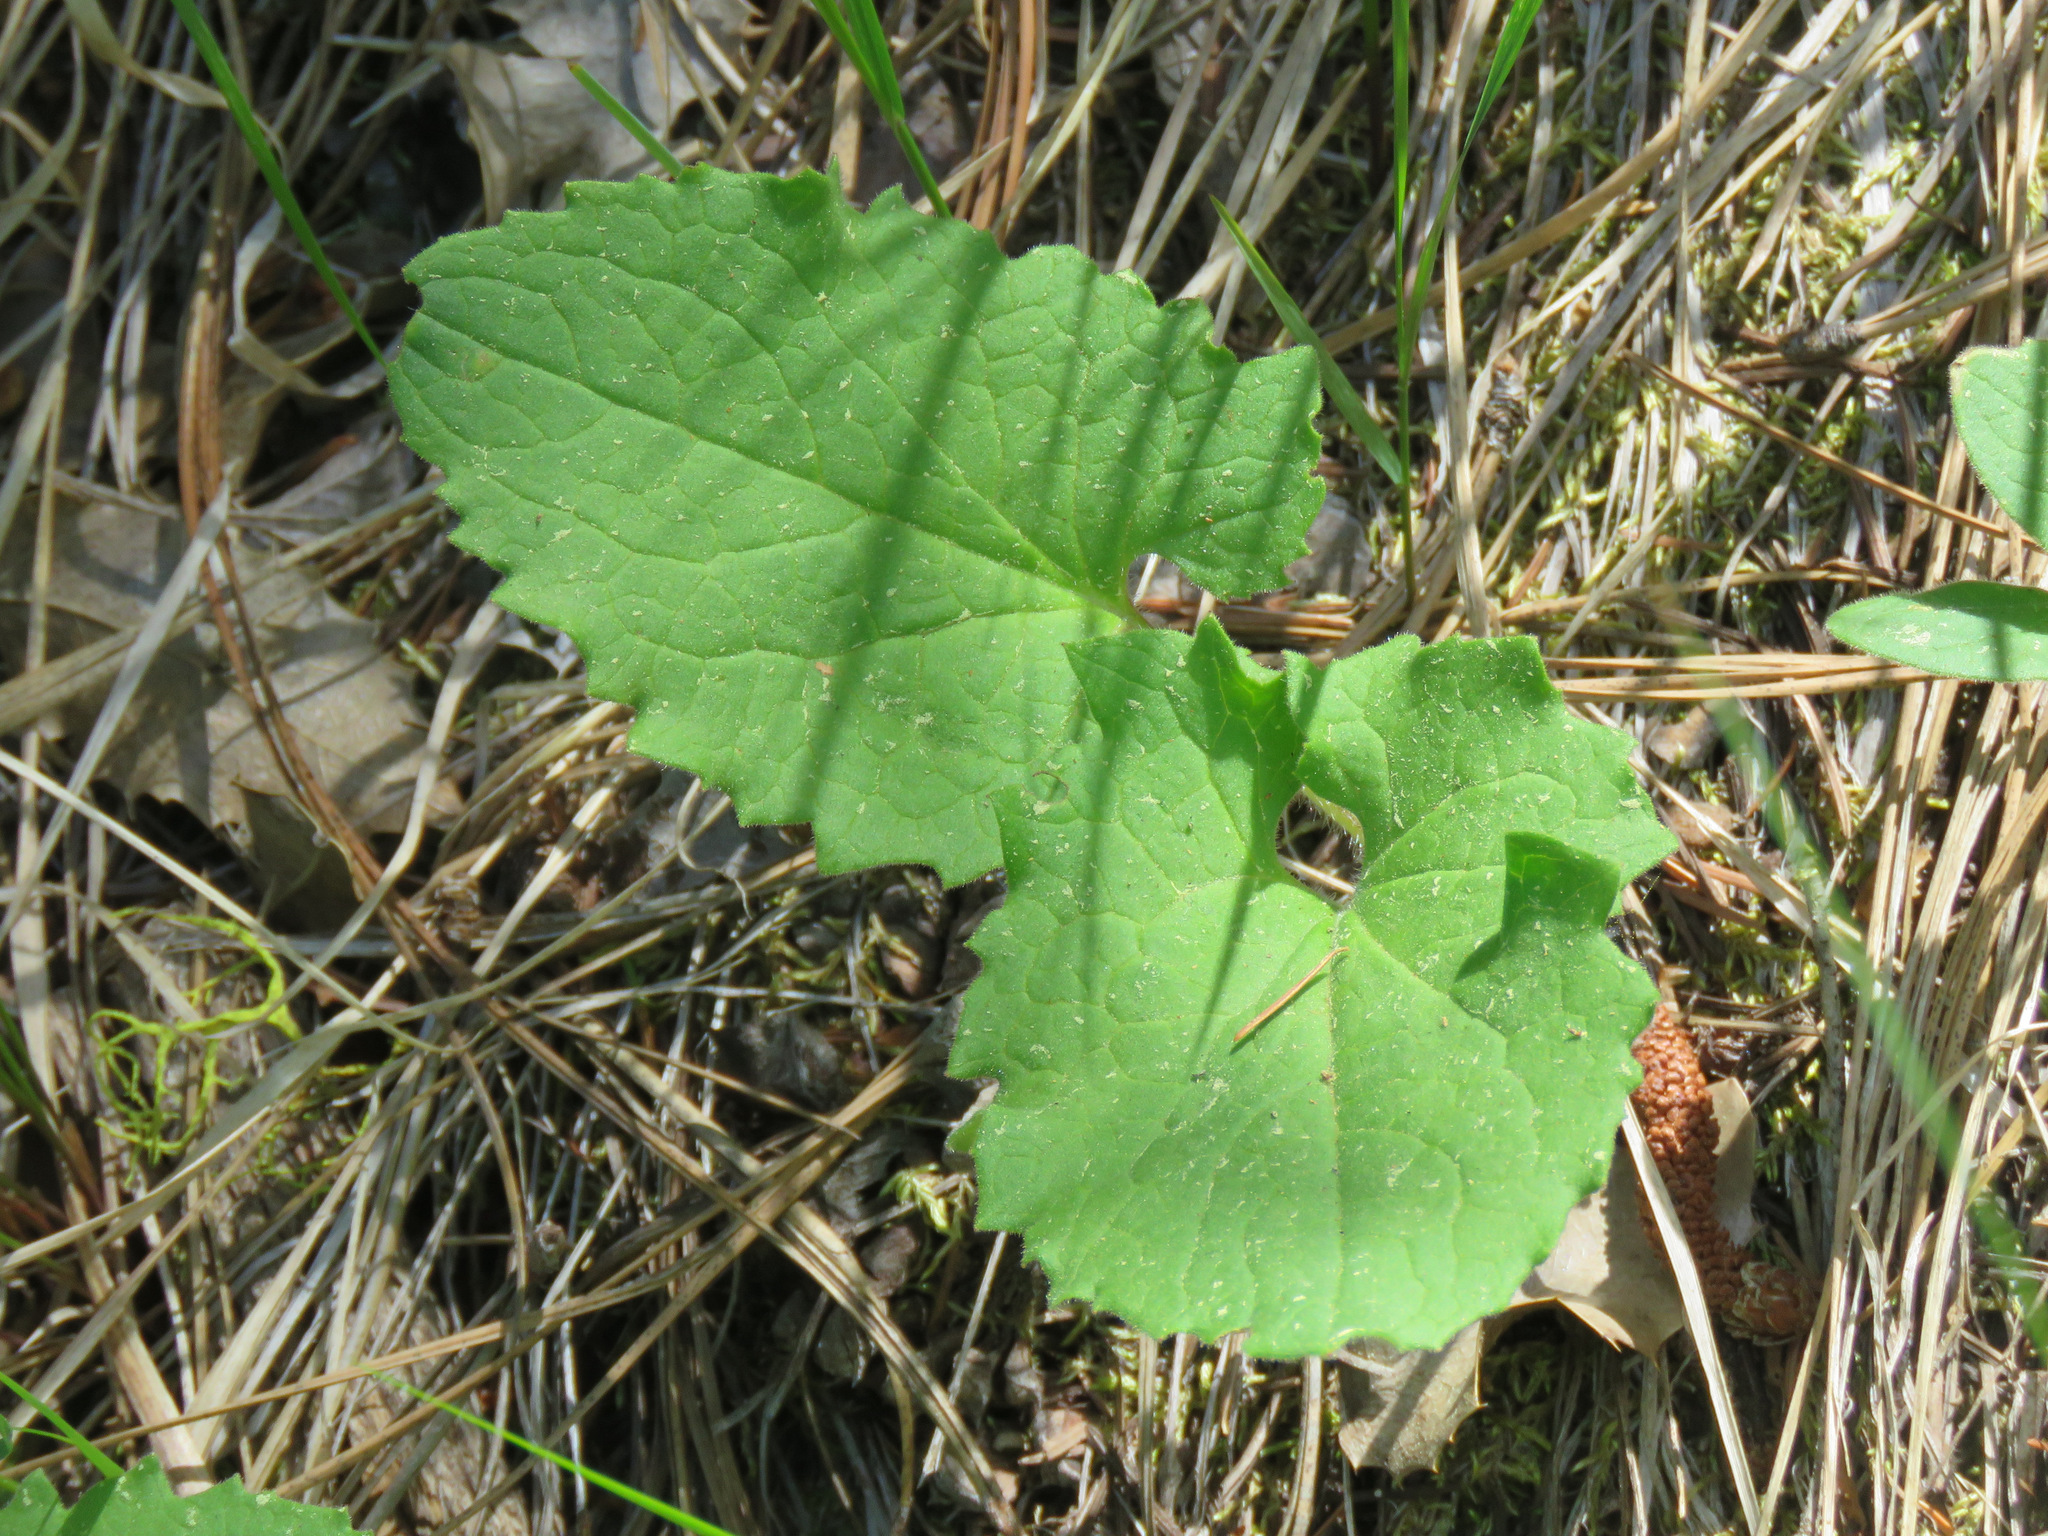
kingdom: Plantae
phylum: Tracheophyta
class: Magnoliopsida
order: Asterales
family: Asteraceae
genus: Arnica
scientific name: Arnica cordifolia
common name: Heart-leaf arnica
